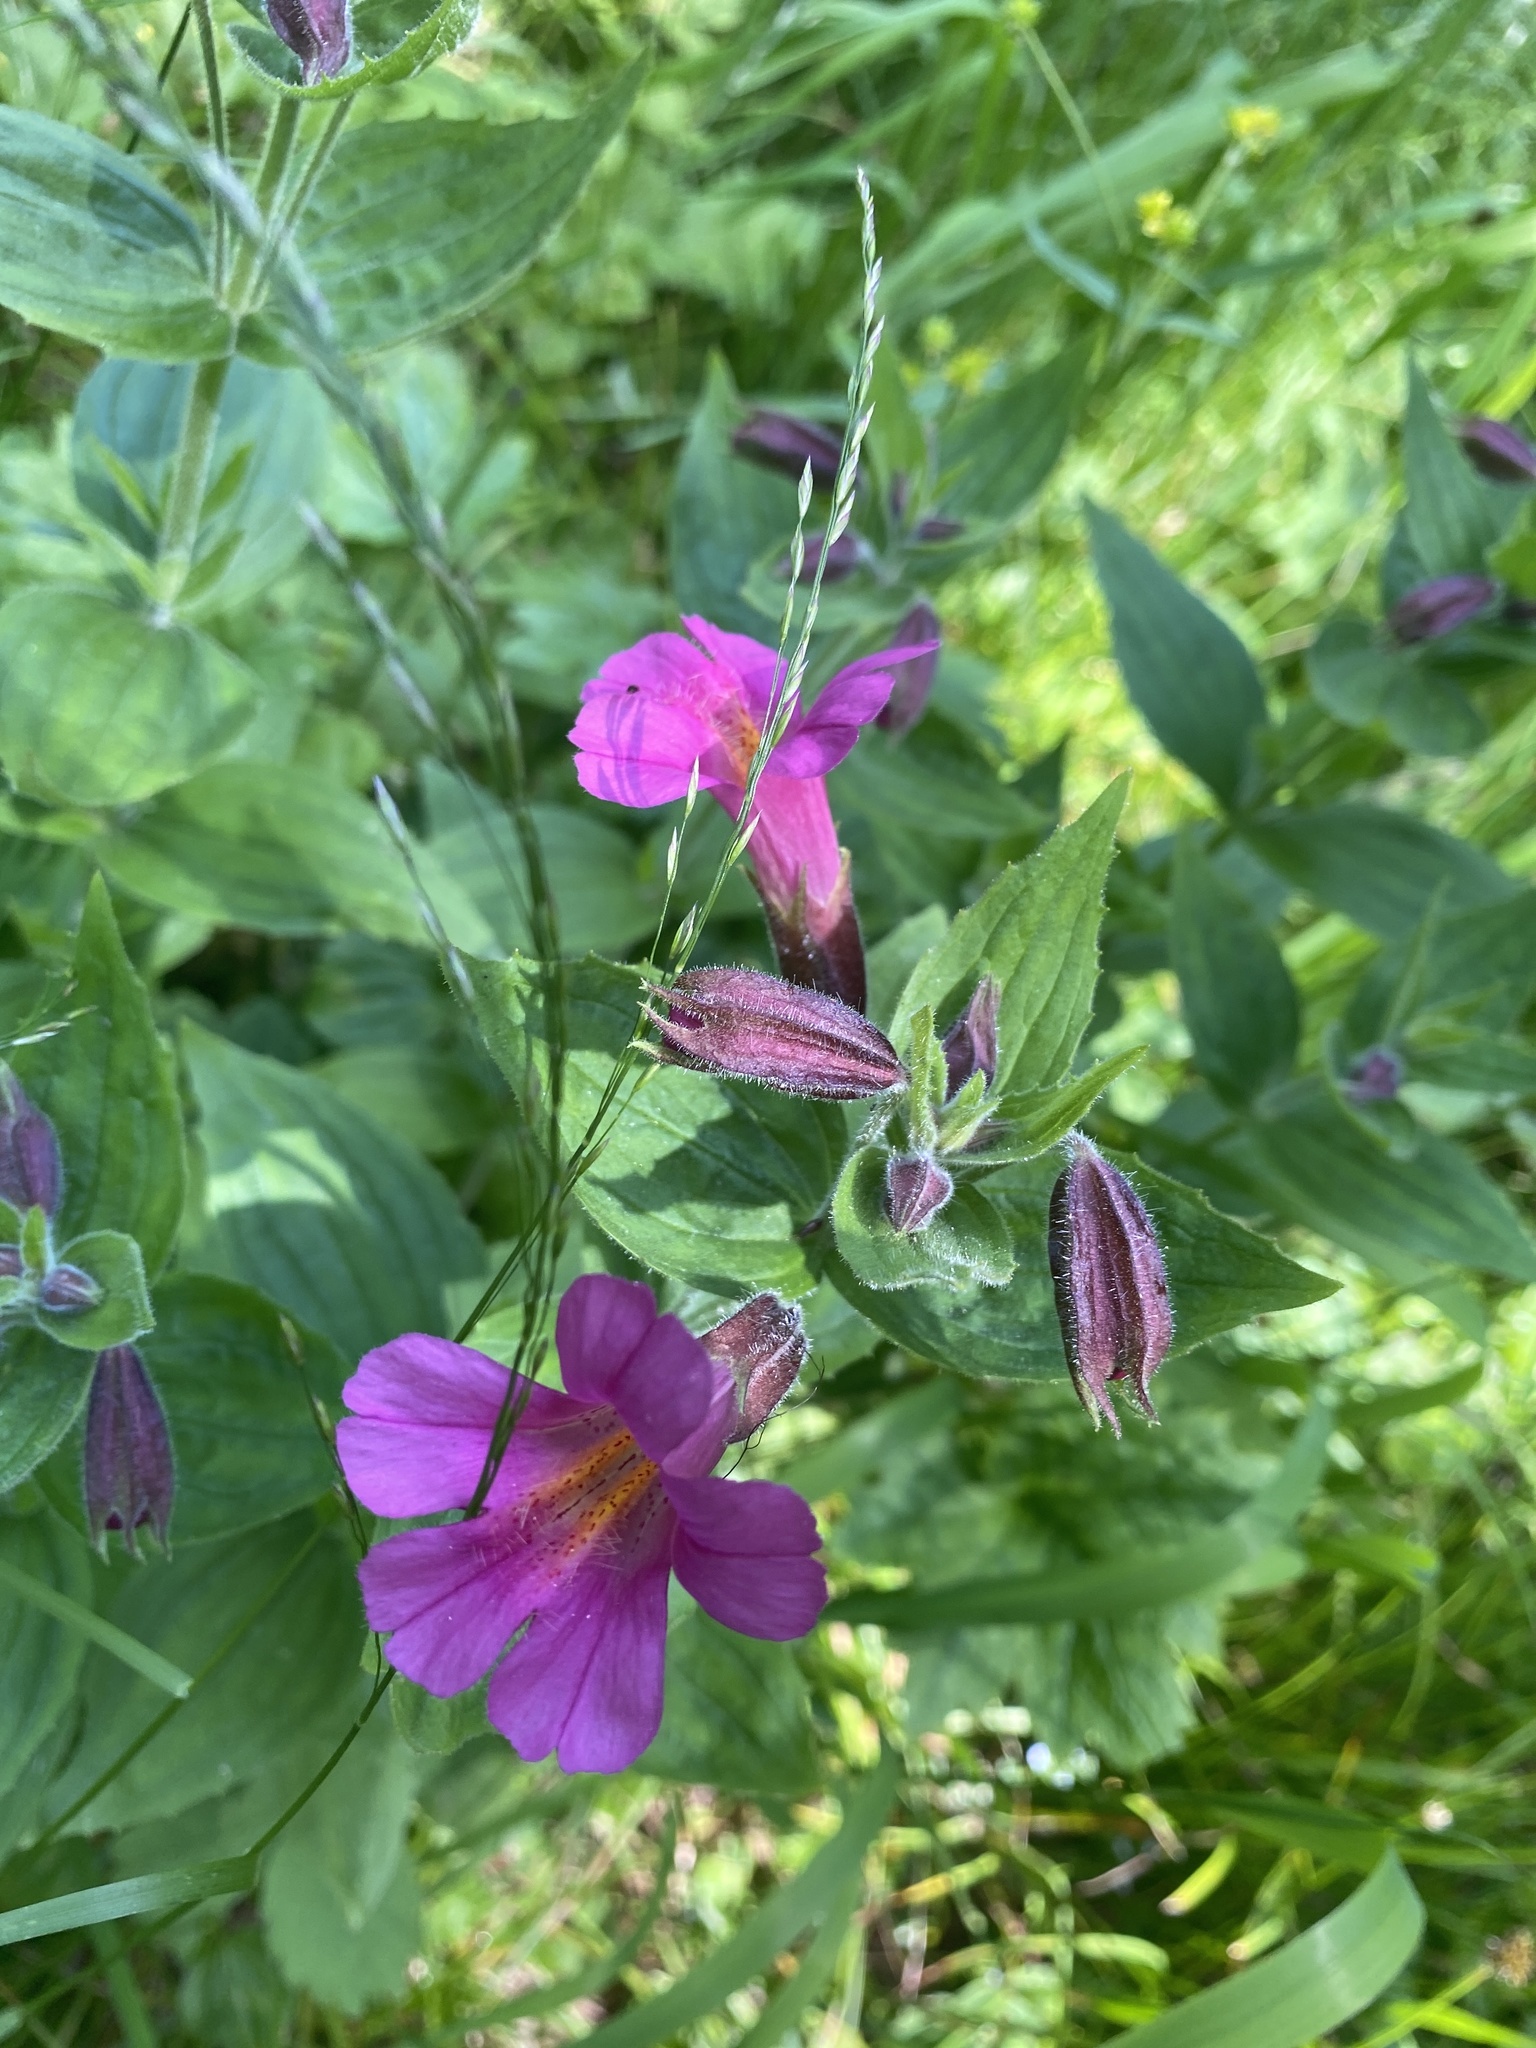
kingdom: Plantae
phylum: Tracheophyta
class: Magnoliopsida
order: Lamiales
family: Phrymaceae
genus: Erythranthe
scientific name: Erythranthe lewisii
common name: Lewis's monkey-flower
